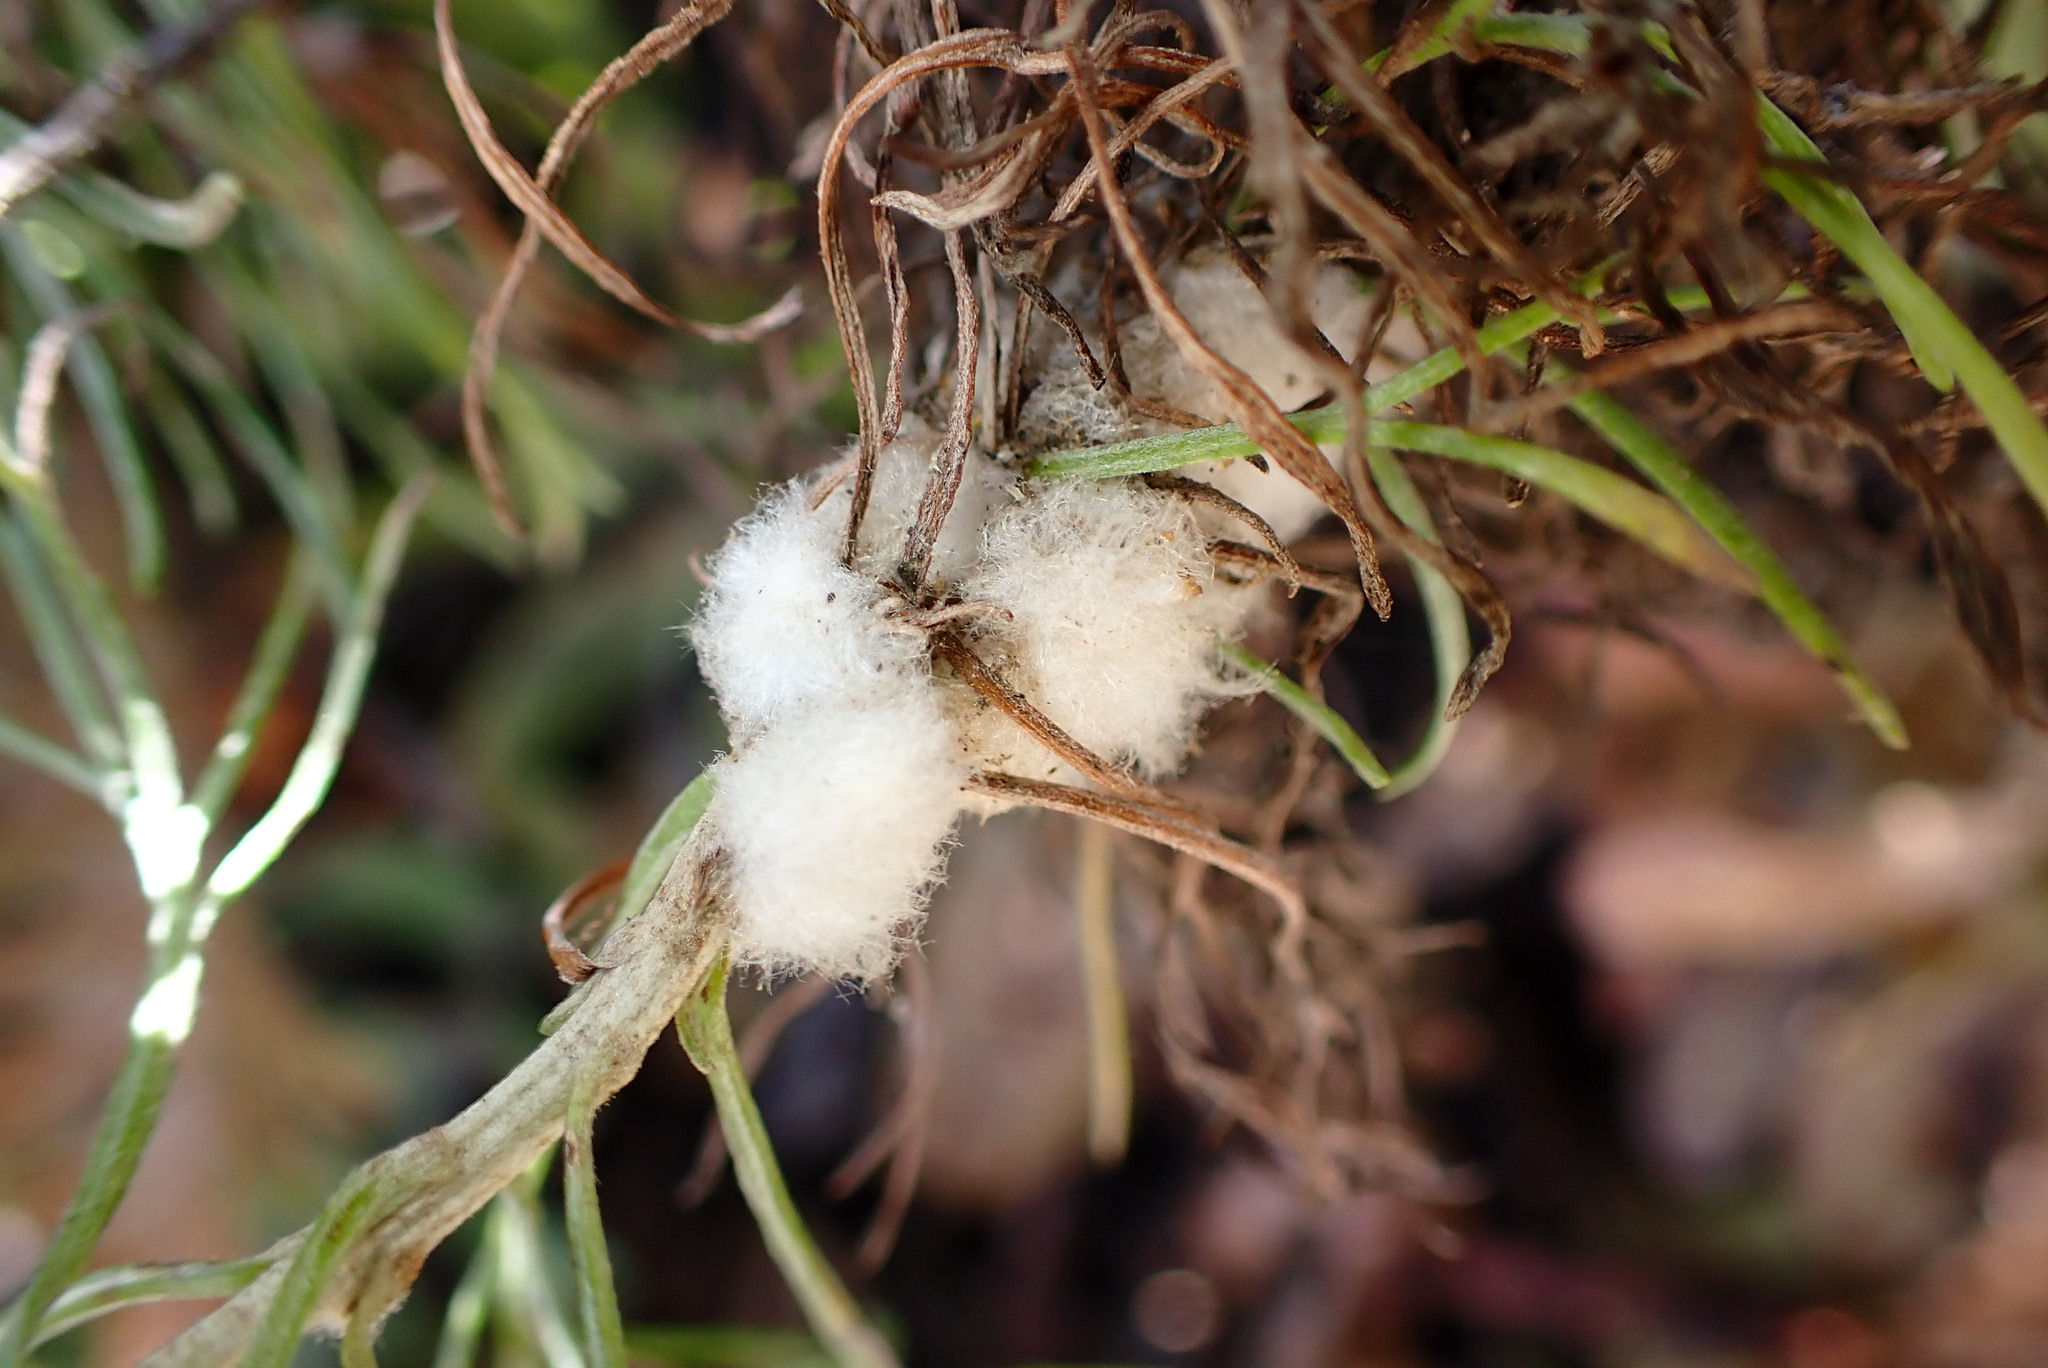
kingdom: Animalia
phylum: Arthropoda
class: Insecta
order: Diptera
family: Cecidomyiidae
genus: Rhopalomyia
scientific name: Rhopalomyia floccosa
